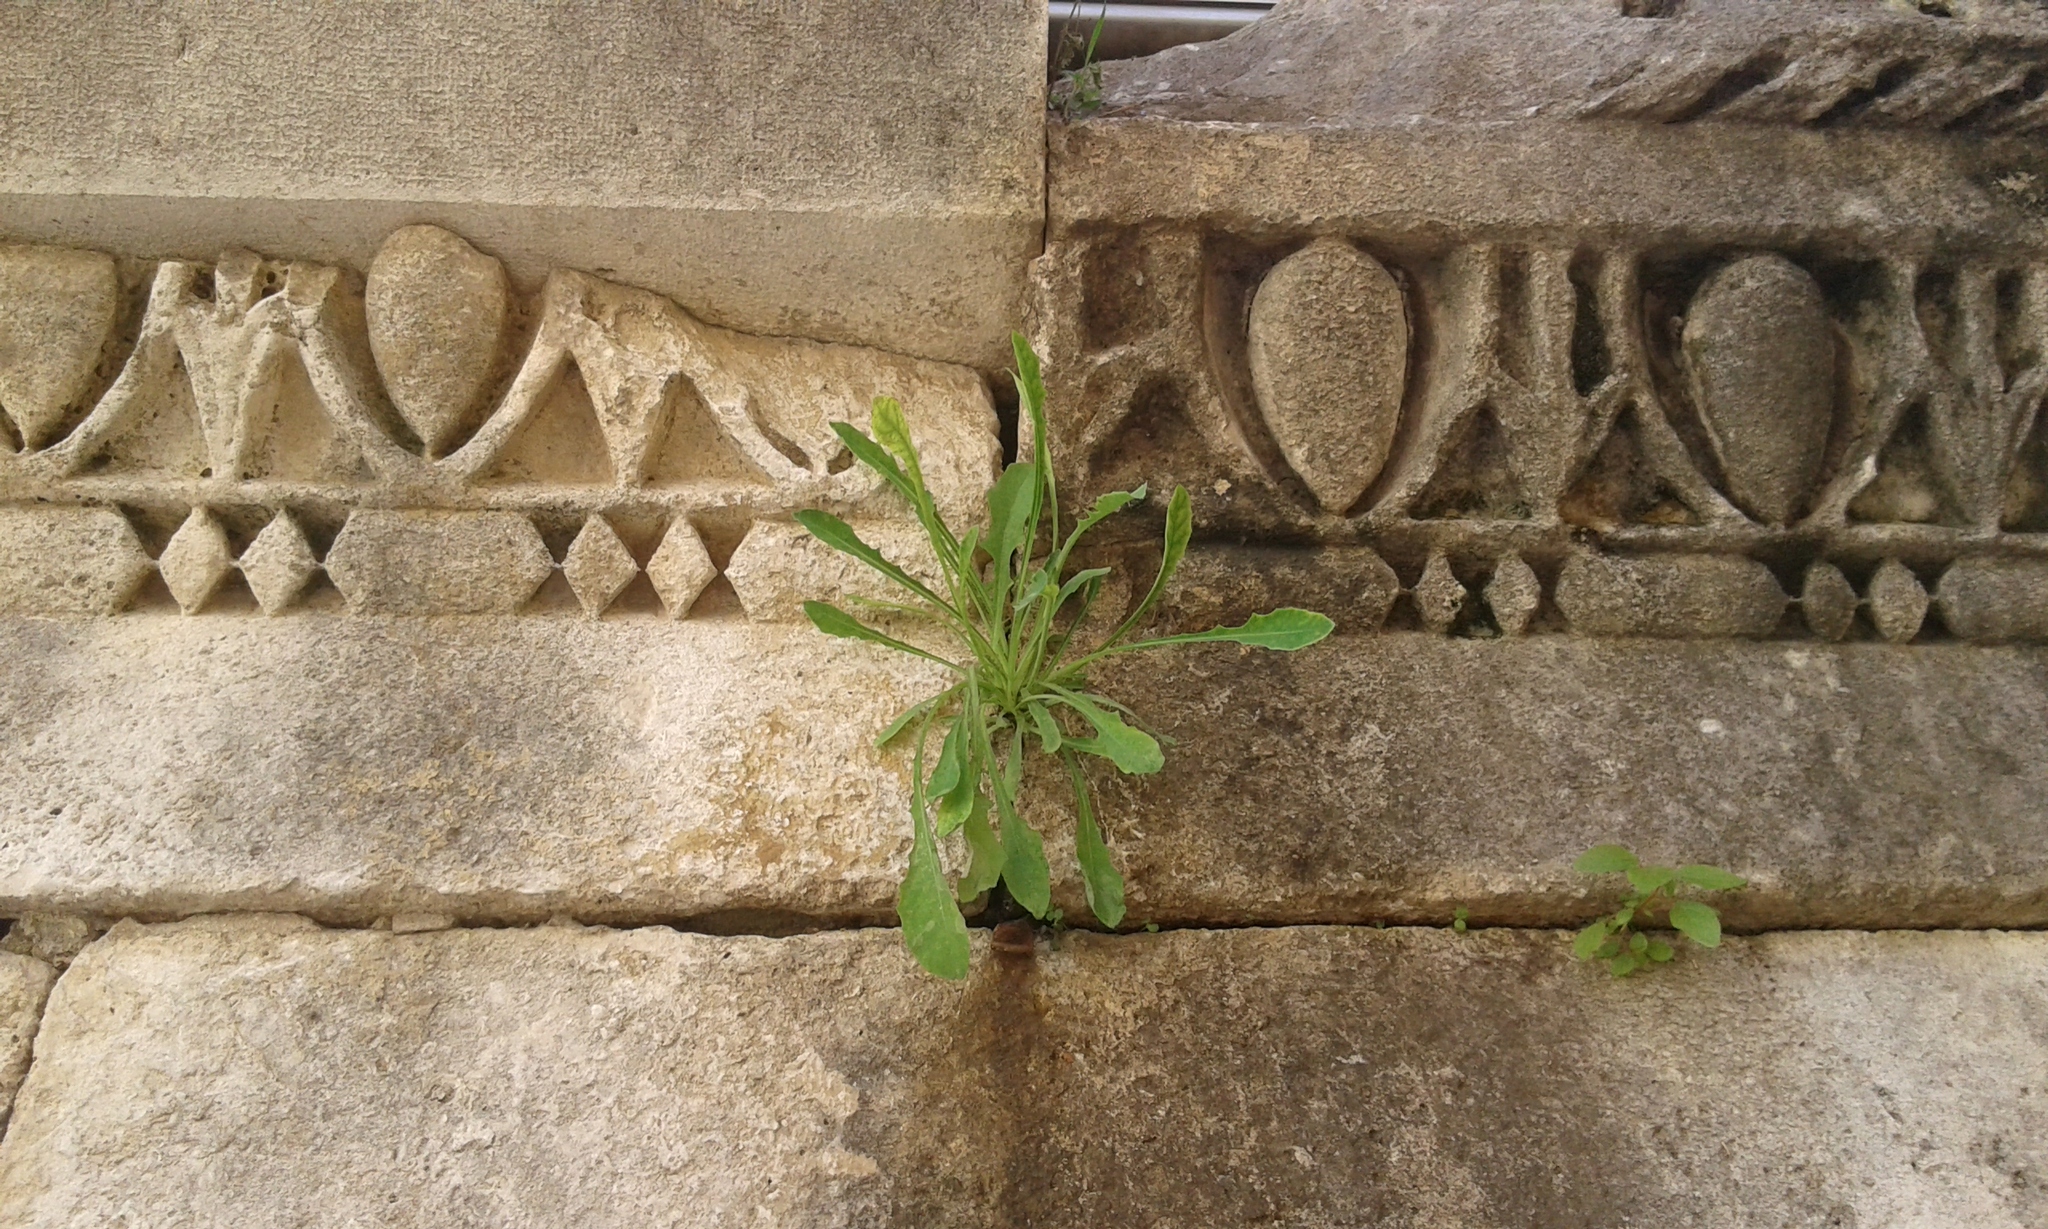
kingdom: Plantae
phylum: Tracheophyta
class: Magnoliopsida
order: Asterales
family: Asteraceae
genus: Reichardia
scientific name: Reichardia picroides
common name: Common brighteyes
